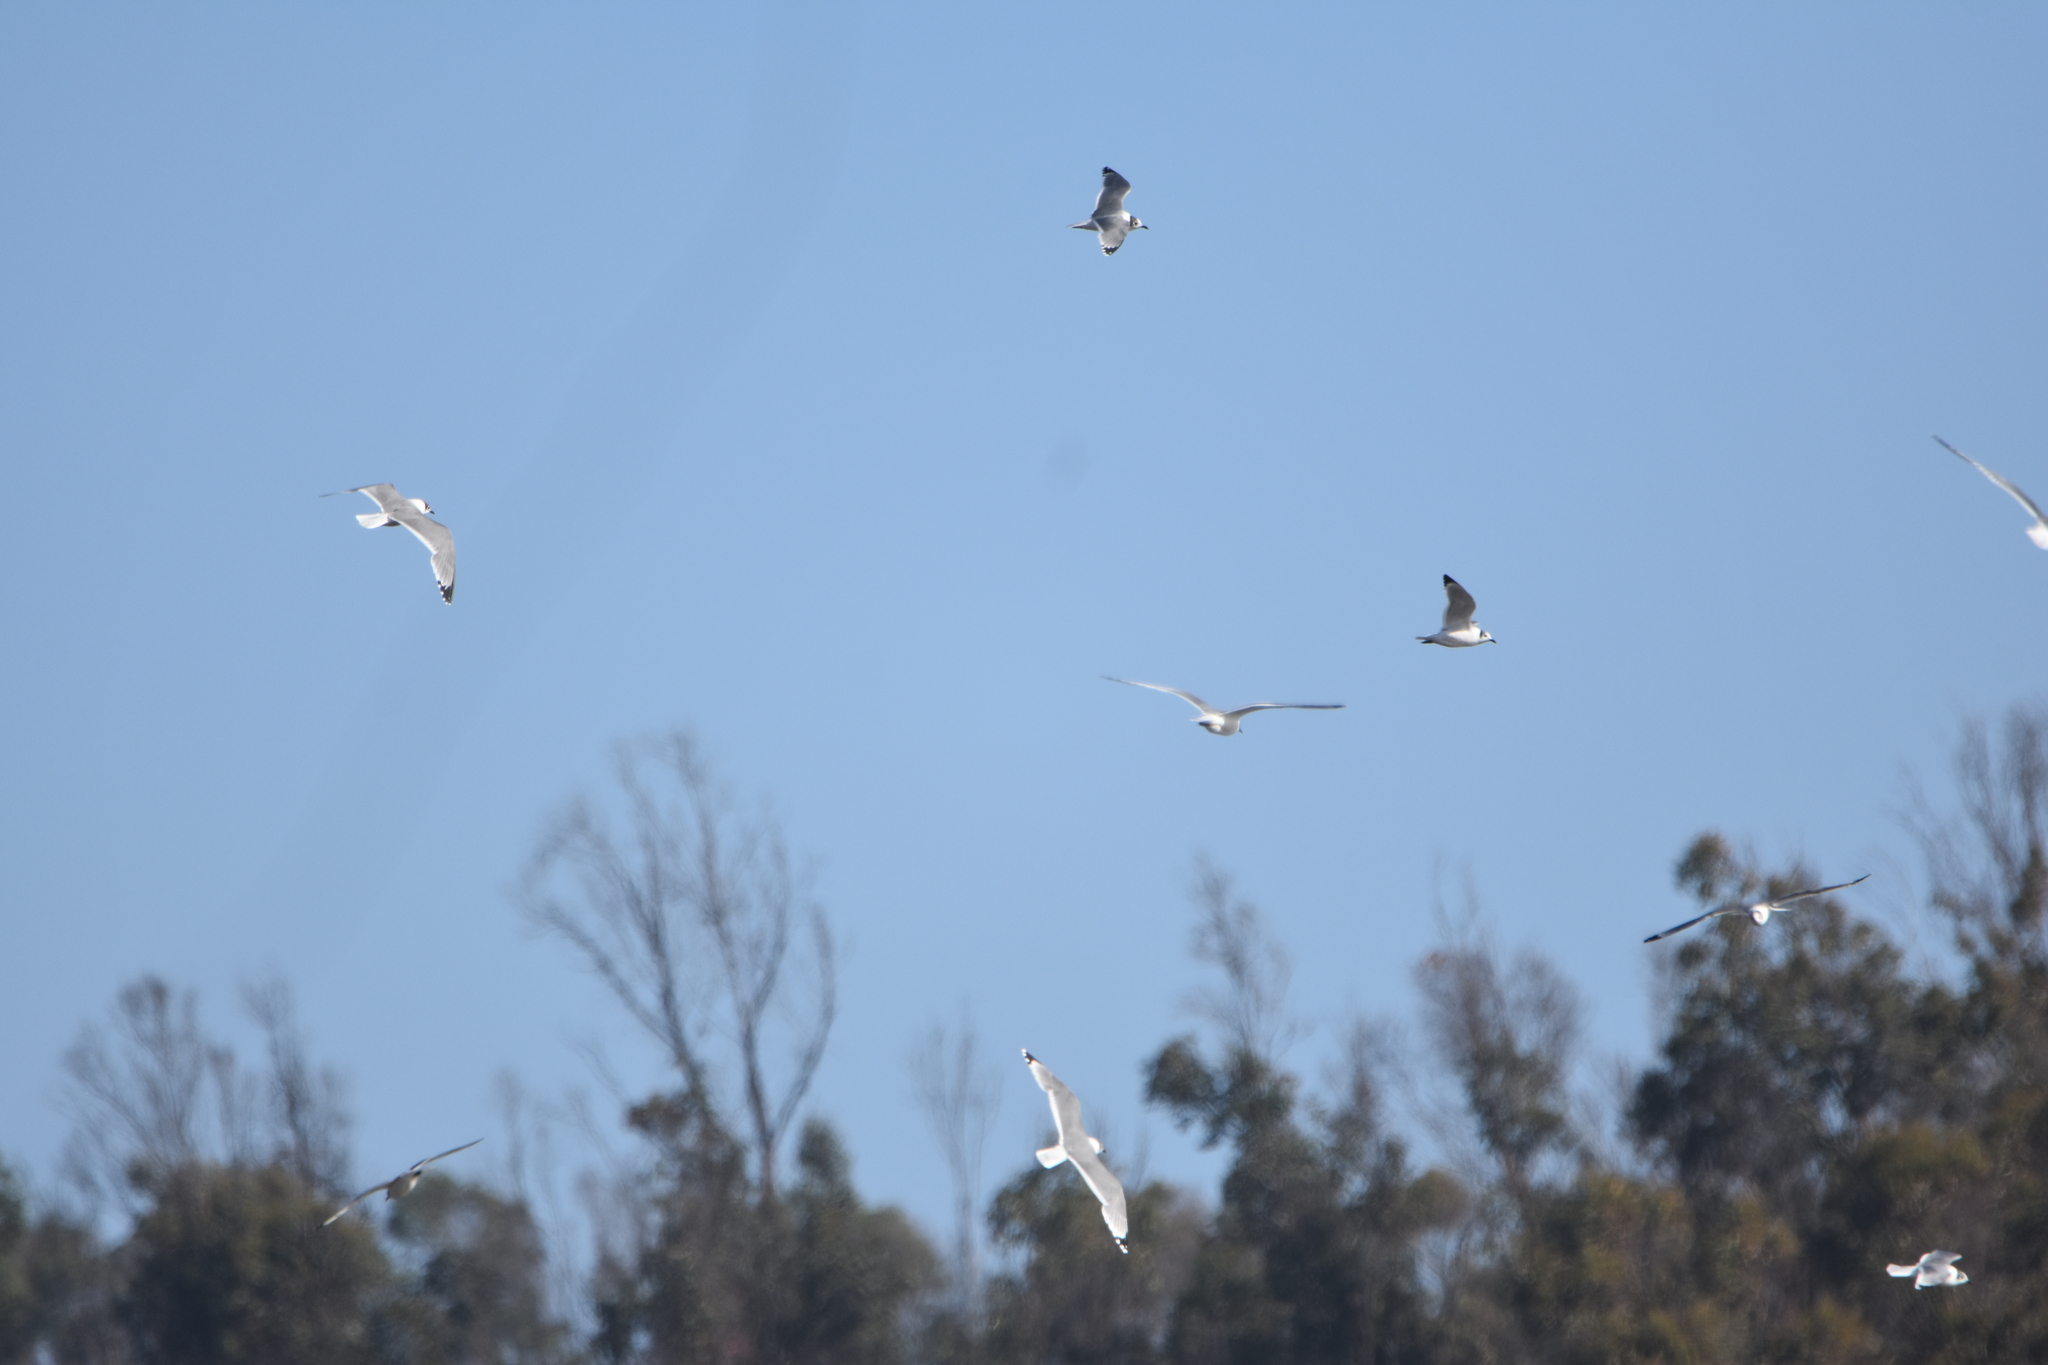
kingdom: Animalia
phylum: Chordata
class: Aves
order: Charadriiformes
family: Laridae
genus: Leucophaeus
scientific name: Leucophaeus pipixcan
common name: Franklin's gull
